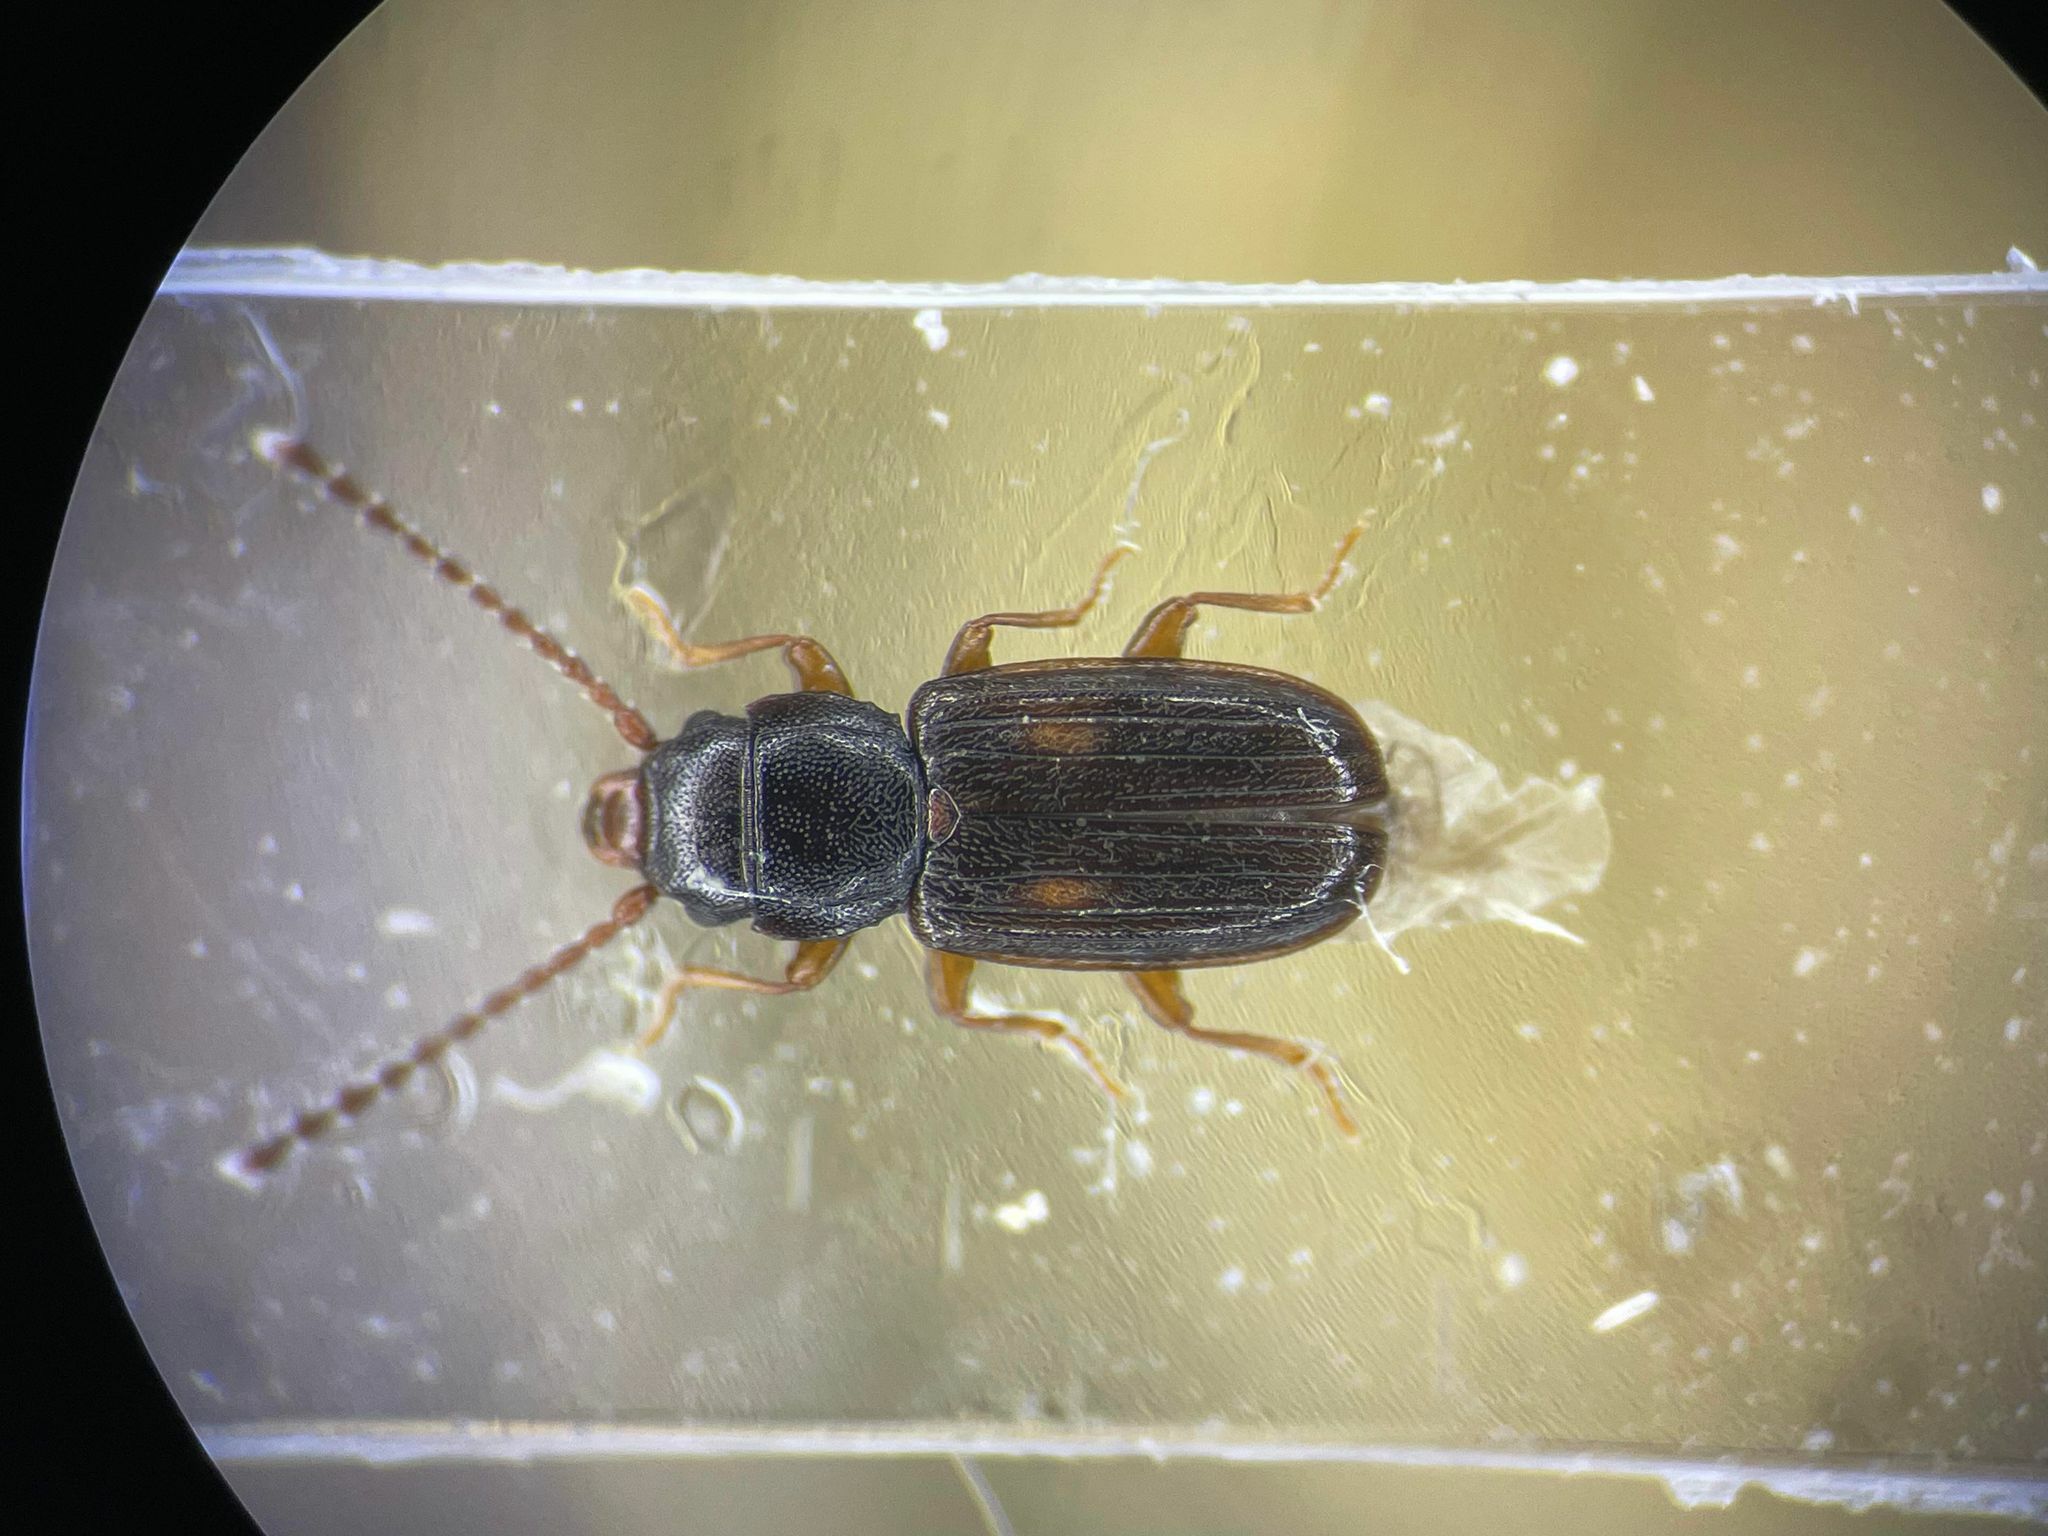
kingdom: Animalia
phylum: Arthropoda
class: Insecta
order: Coleoptera
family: Laemophloeidae
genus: Laemophloeus
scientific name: Laemophloeus biguttatus
